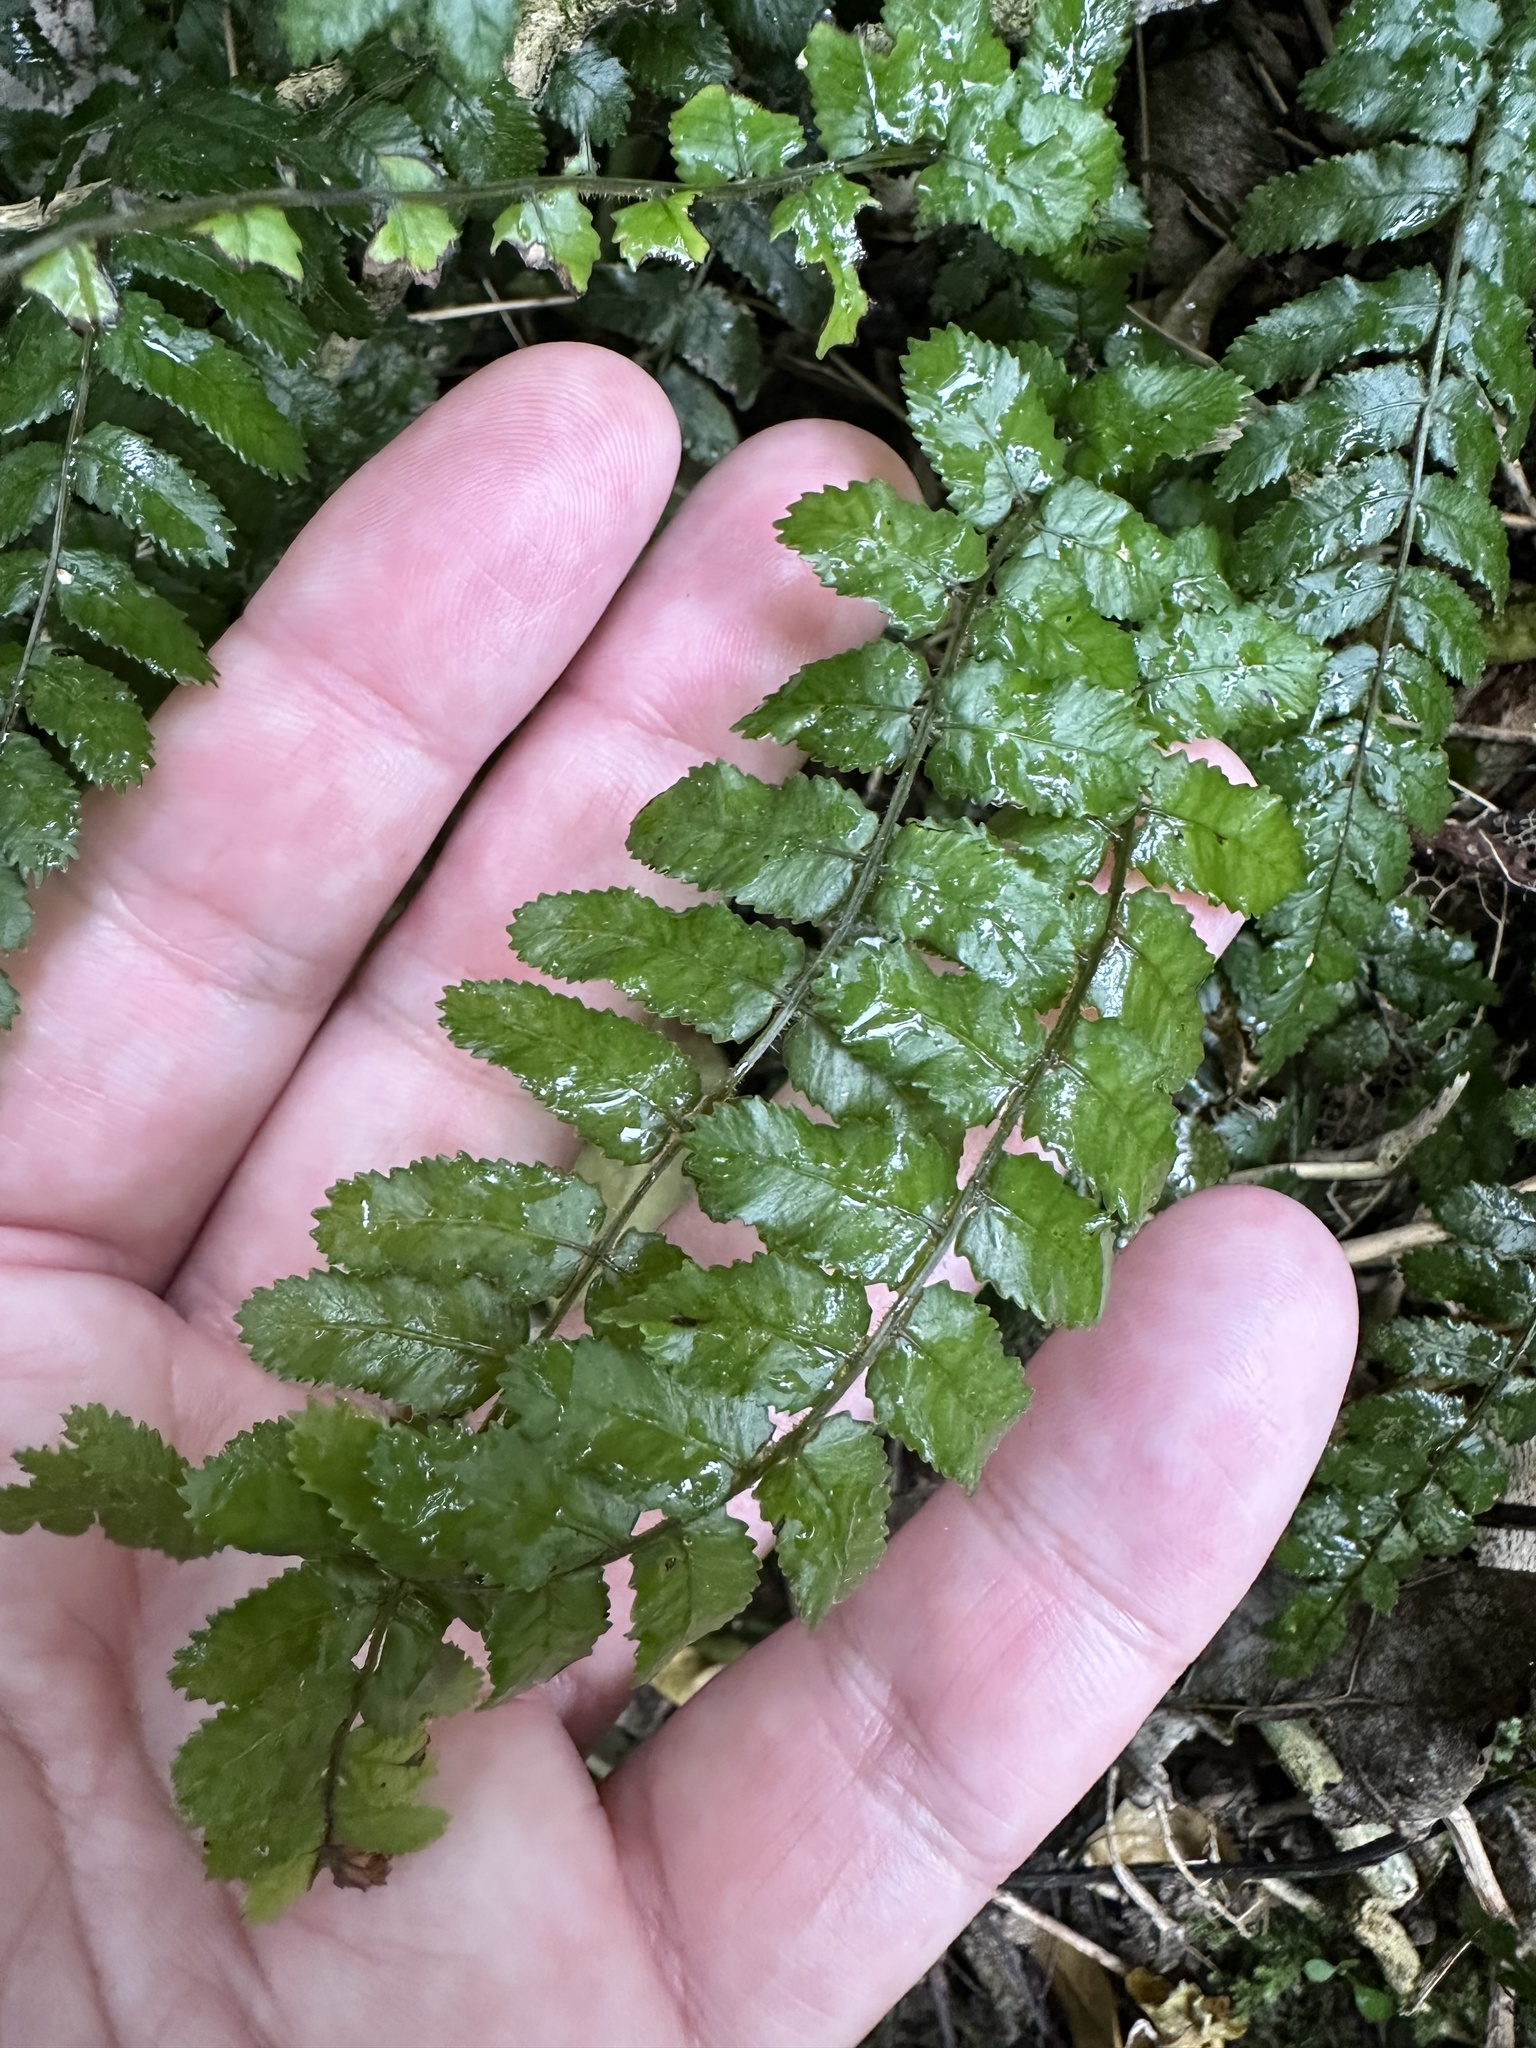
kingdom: Plantae
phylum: Tracheophyta
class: Polypodiopsida
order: Polypodiales
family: Blechnaceae
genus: Icarus
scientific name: Icarus filiformis
